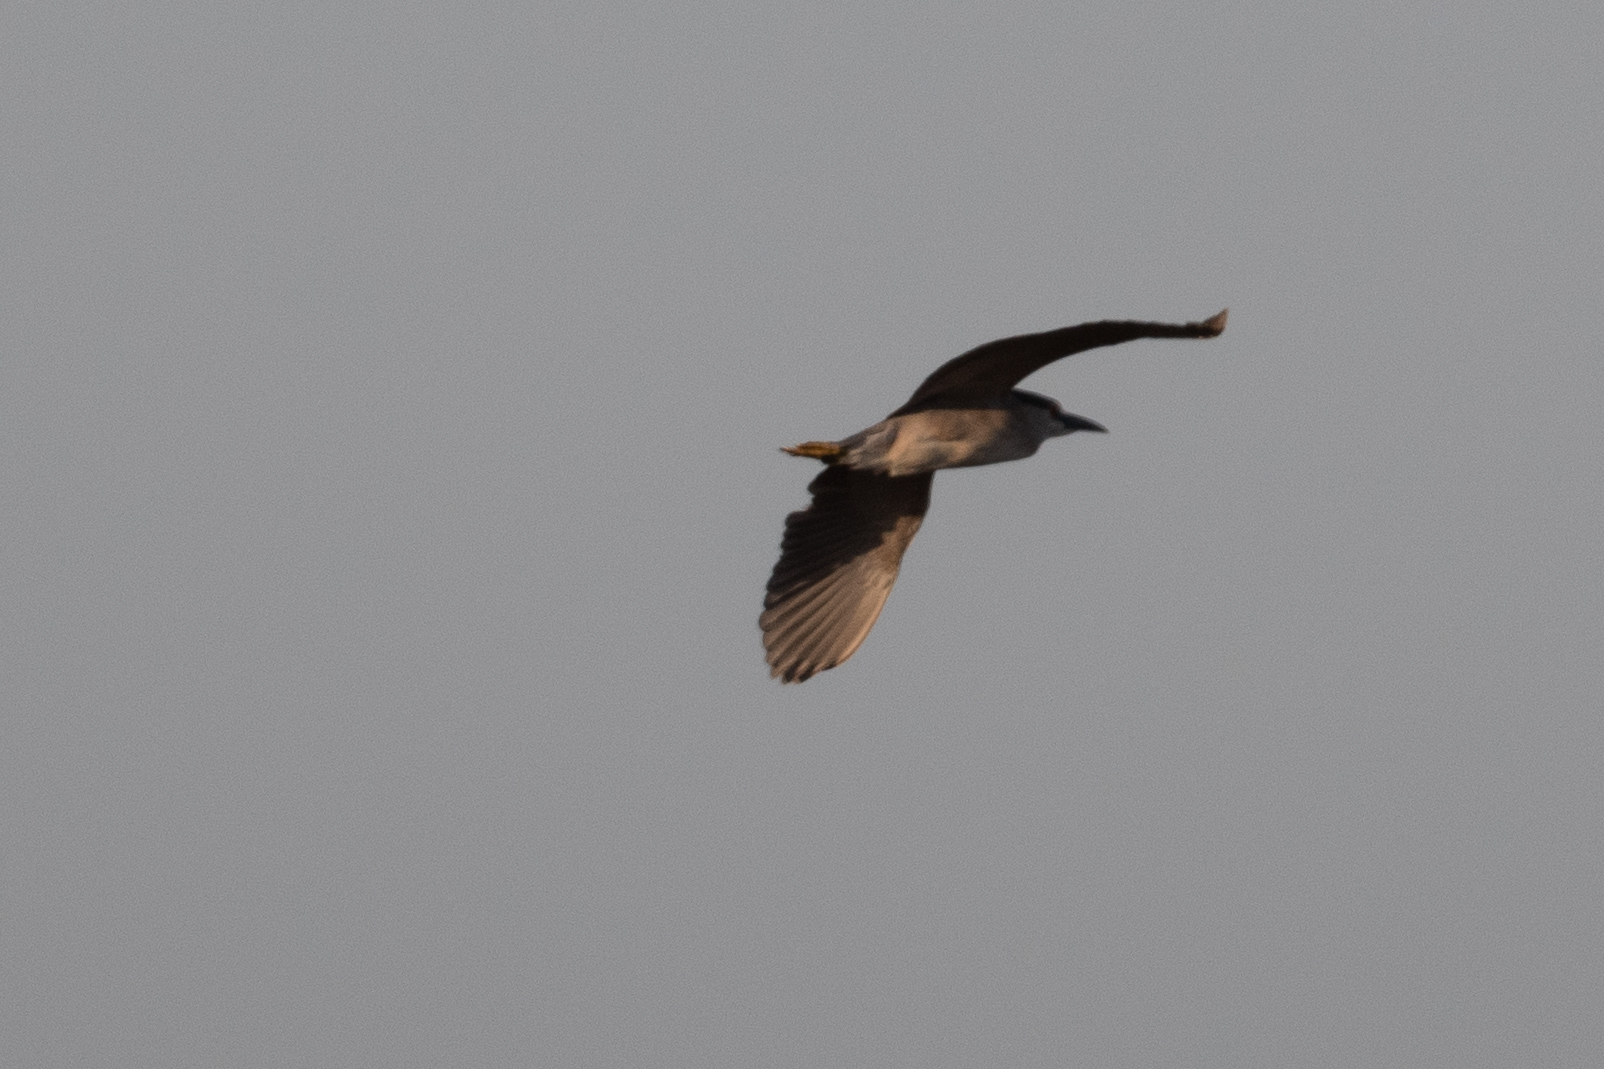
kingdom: Animalia
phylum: Chordata
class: Aves
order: Pelecaniformes
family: Ardeidae
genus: Nycticorax
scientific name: Nycticorax nycticorax
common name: Black-crowned night heron
